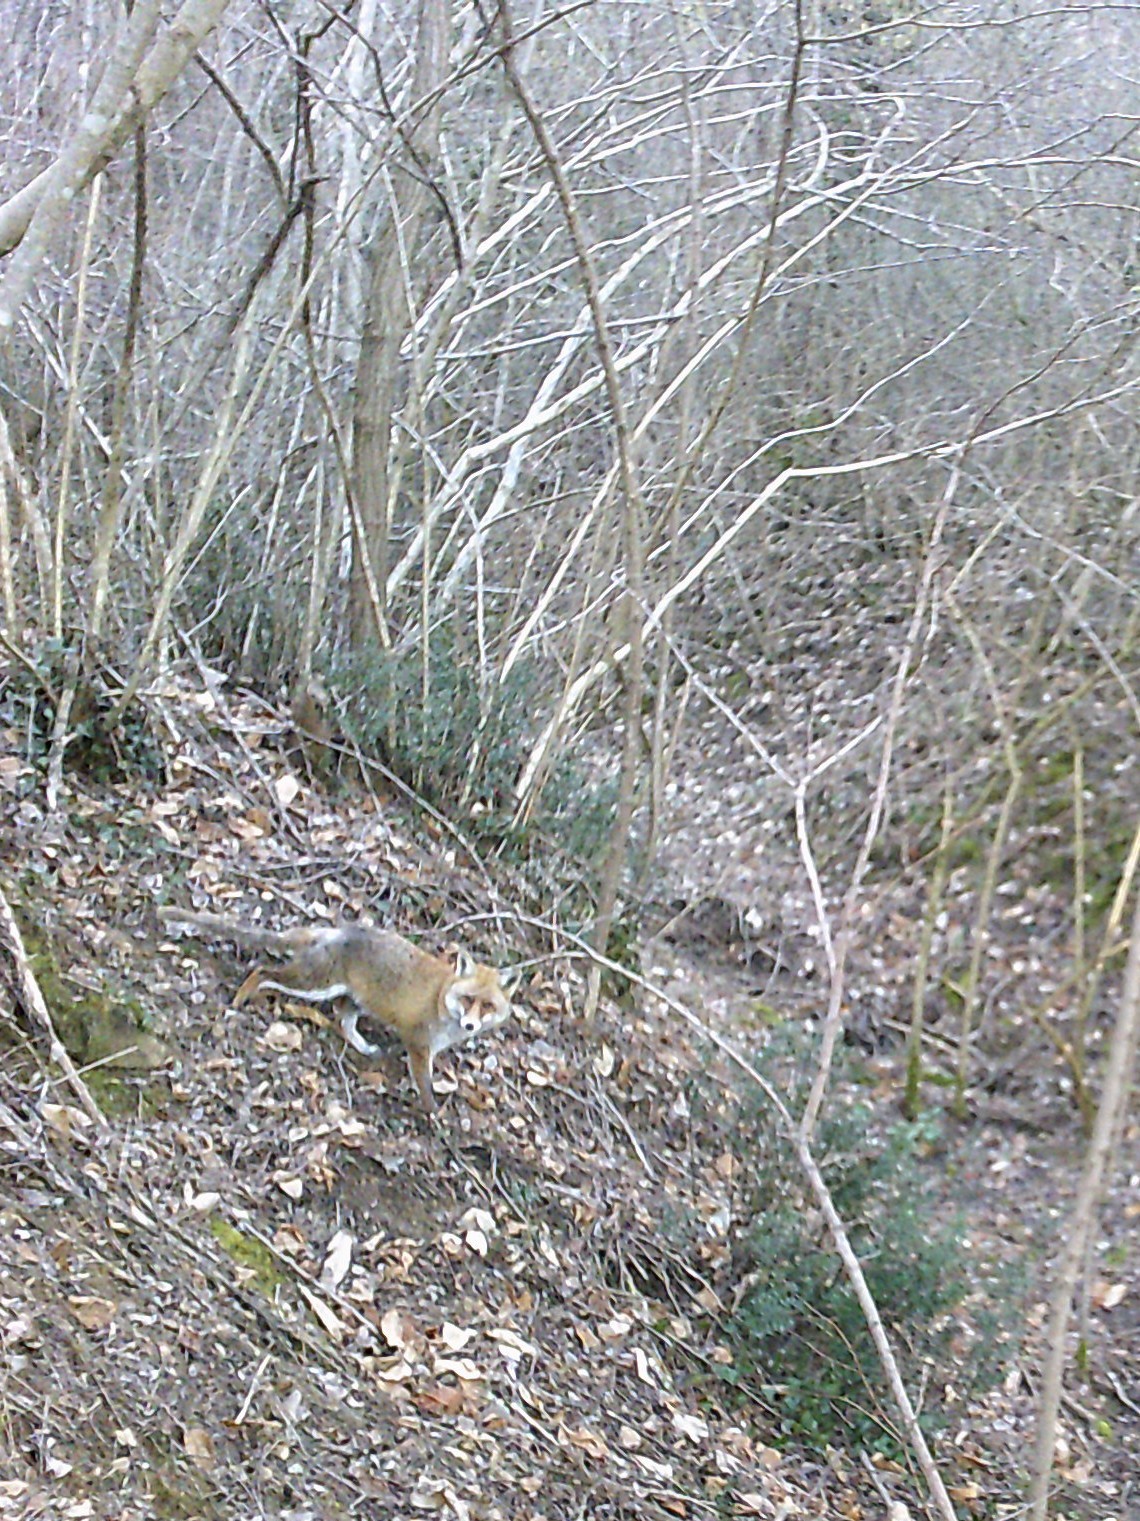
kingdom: Animalia
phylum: Chordata
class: Mammalia
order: Carnivora
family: Canidae
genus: Vulpes
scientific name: Vulpes vulpes
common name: Red fox
